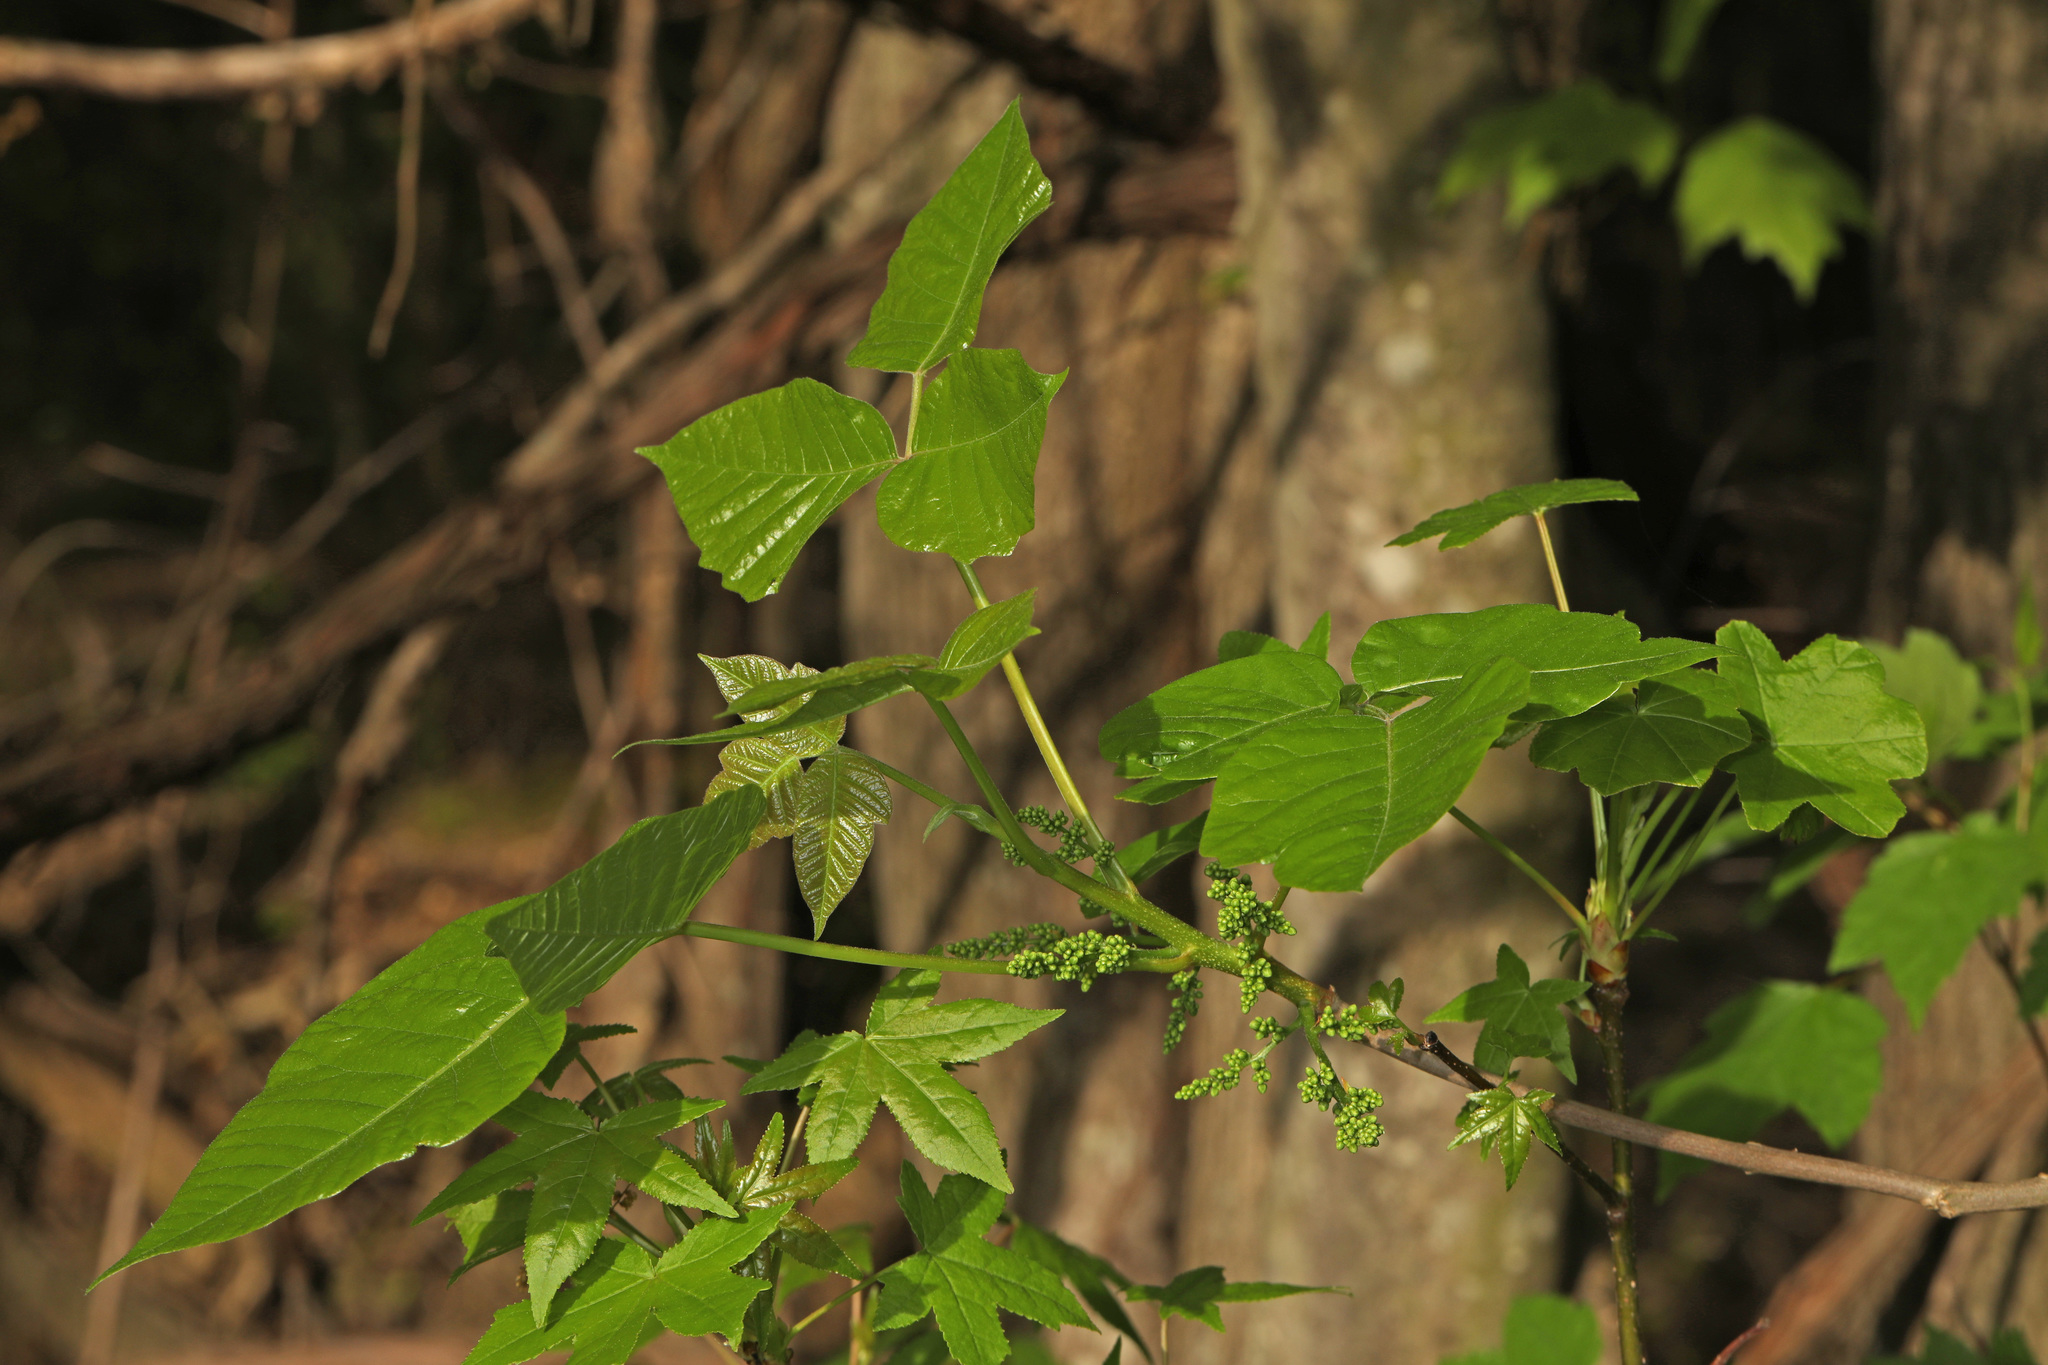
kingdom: Plantae
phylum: Tracheophyta
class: Magnoliopsida
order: Sapindales
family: Anacardiaceae
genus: Toxicodendron
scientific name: Toxicodendron radicans
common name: Poison ivy
